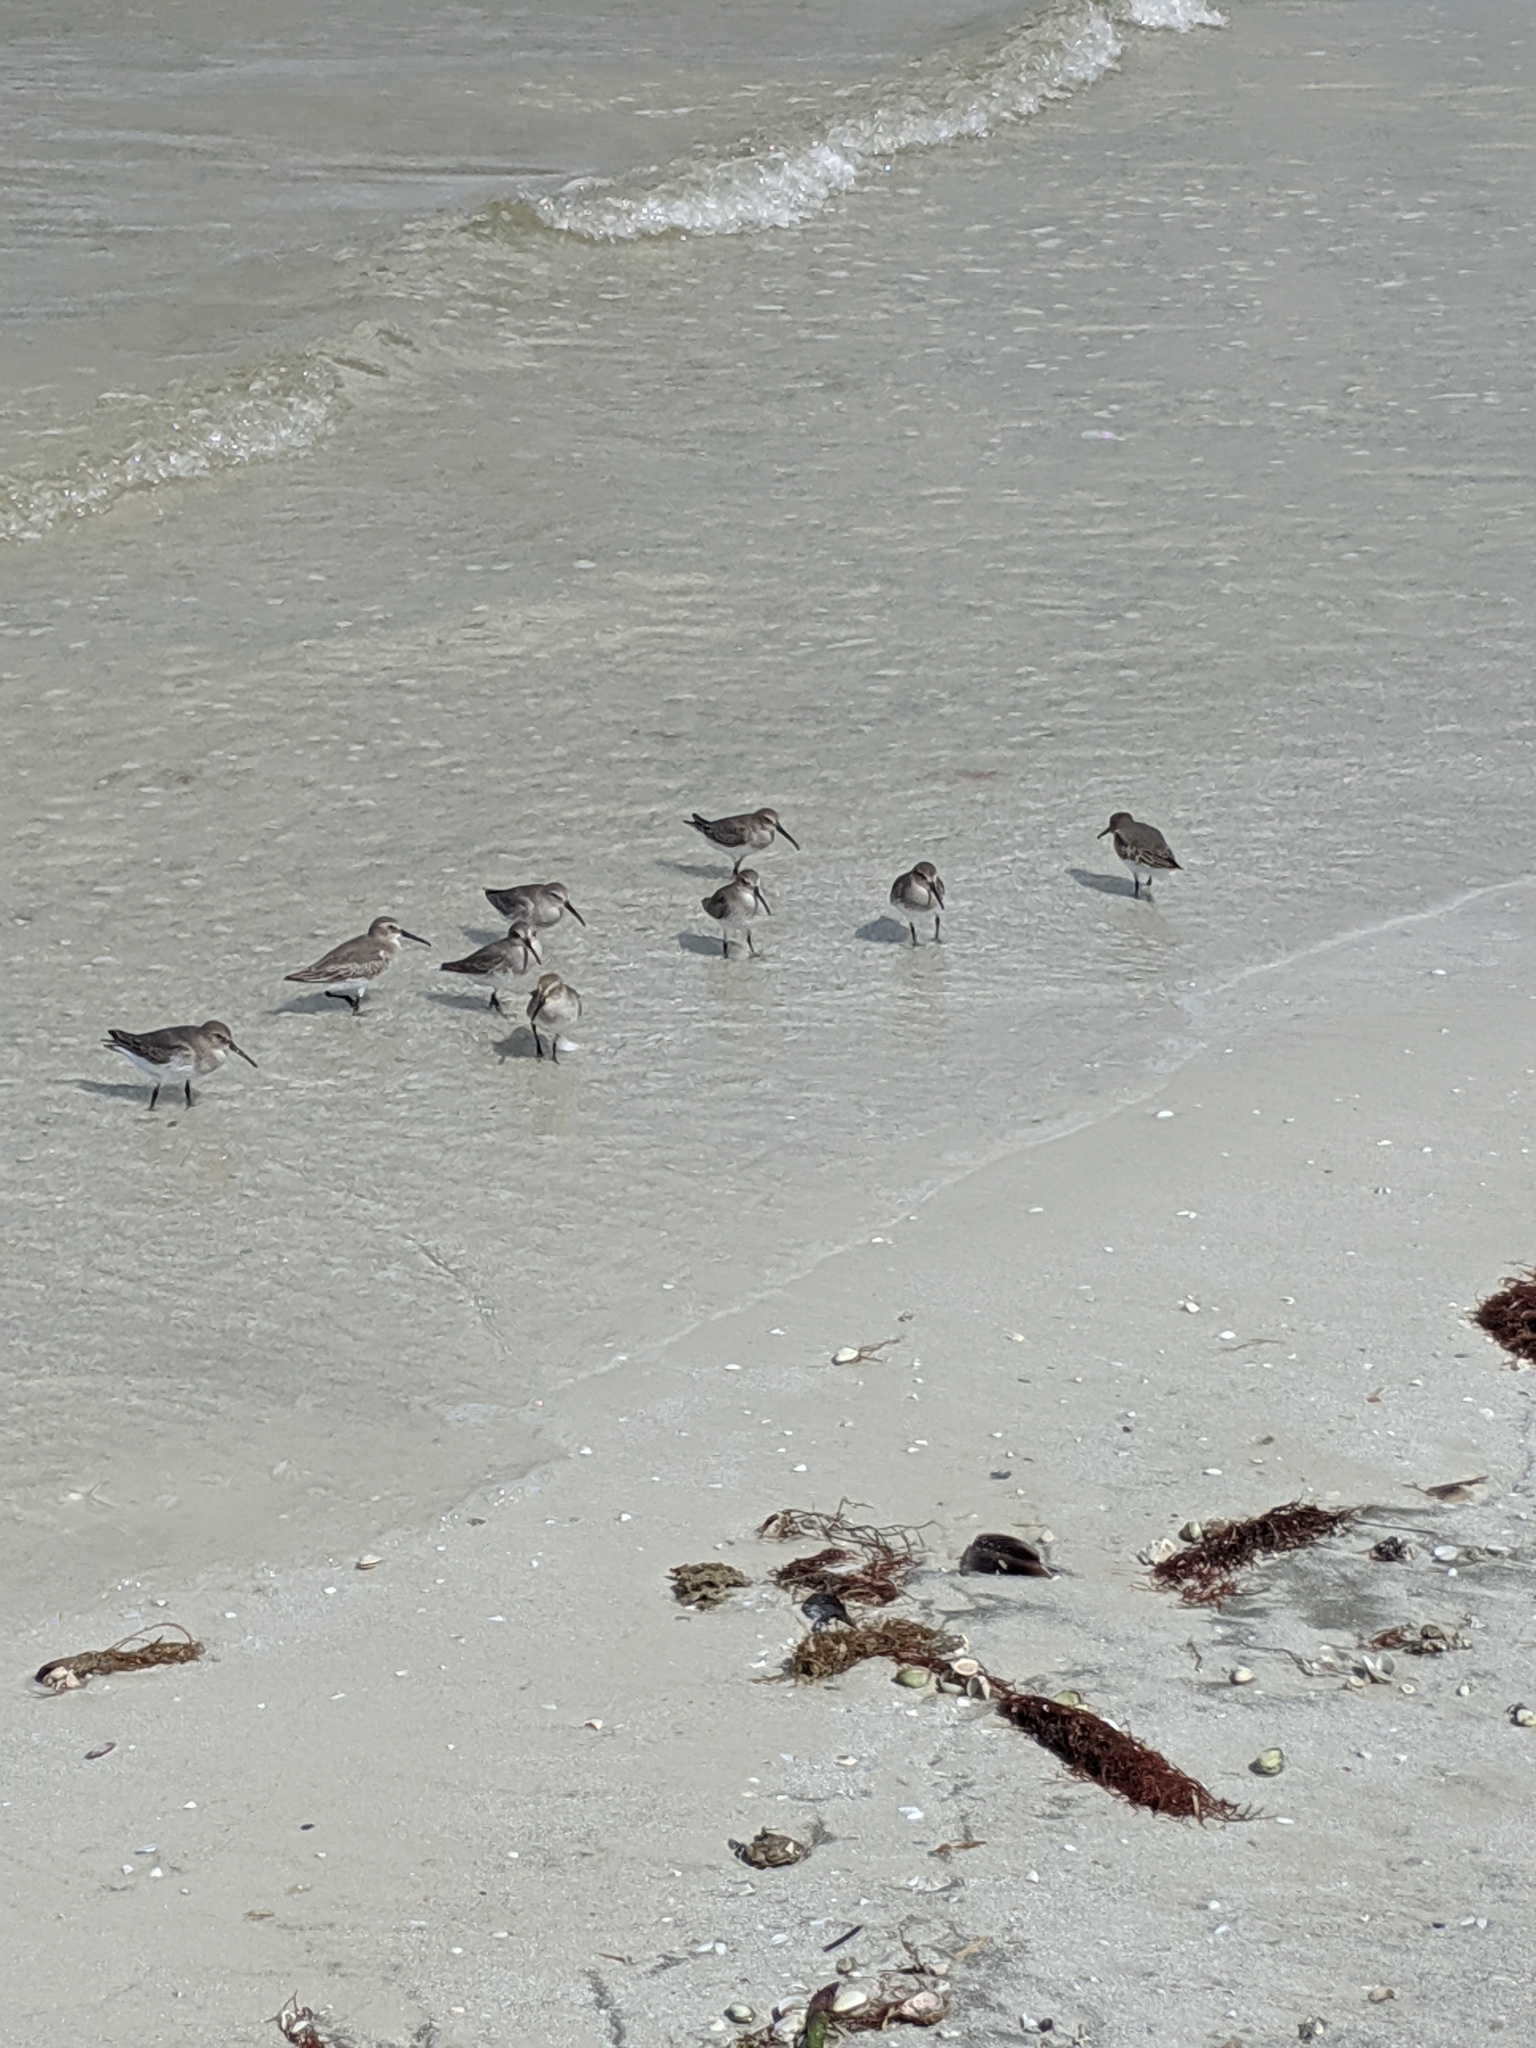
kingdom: Animalia
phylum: Chordata
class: Aves
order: Charadriiformes
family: Scolopacidae
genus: Calidris
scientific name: Calidris alpina
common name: Dunlin
